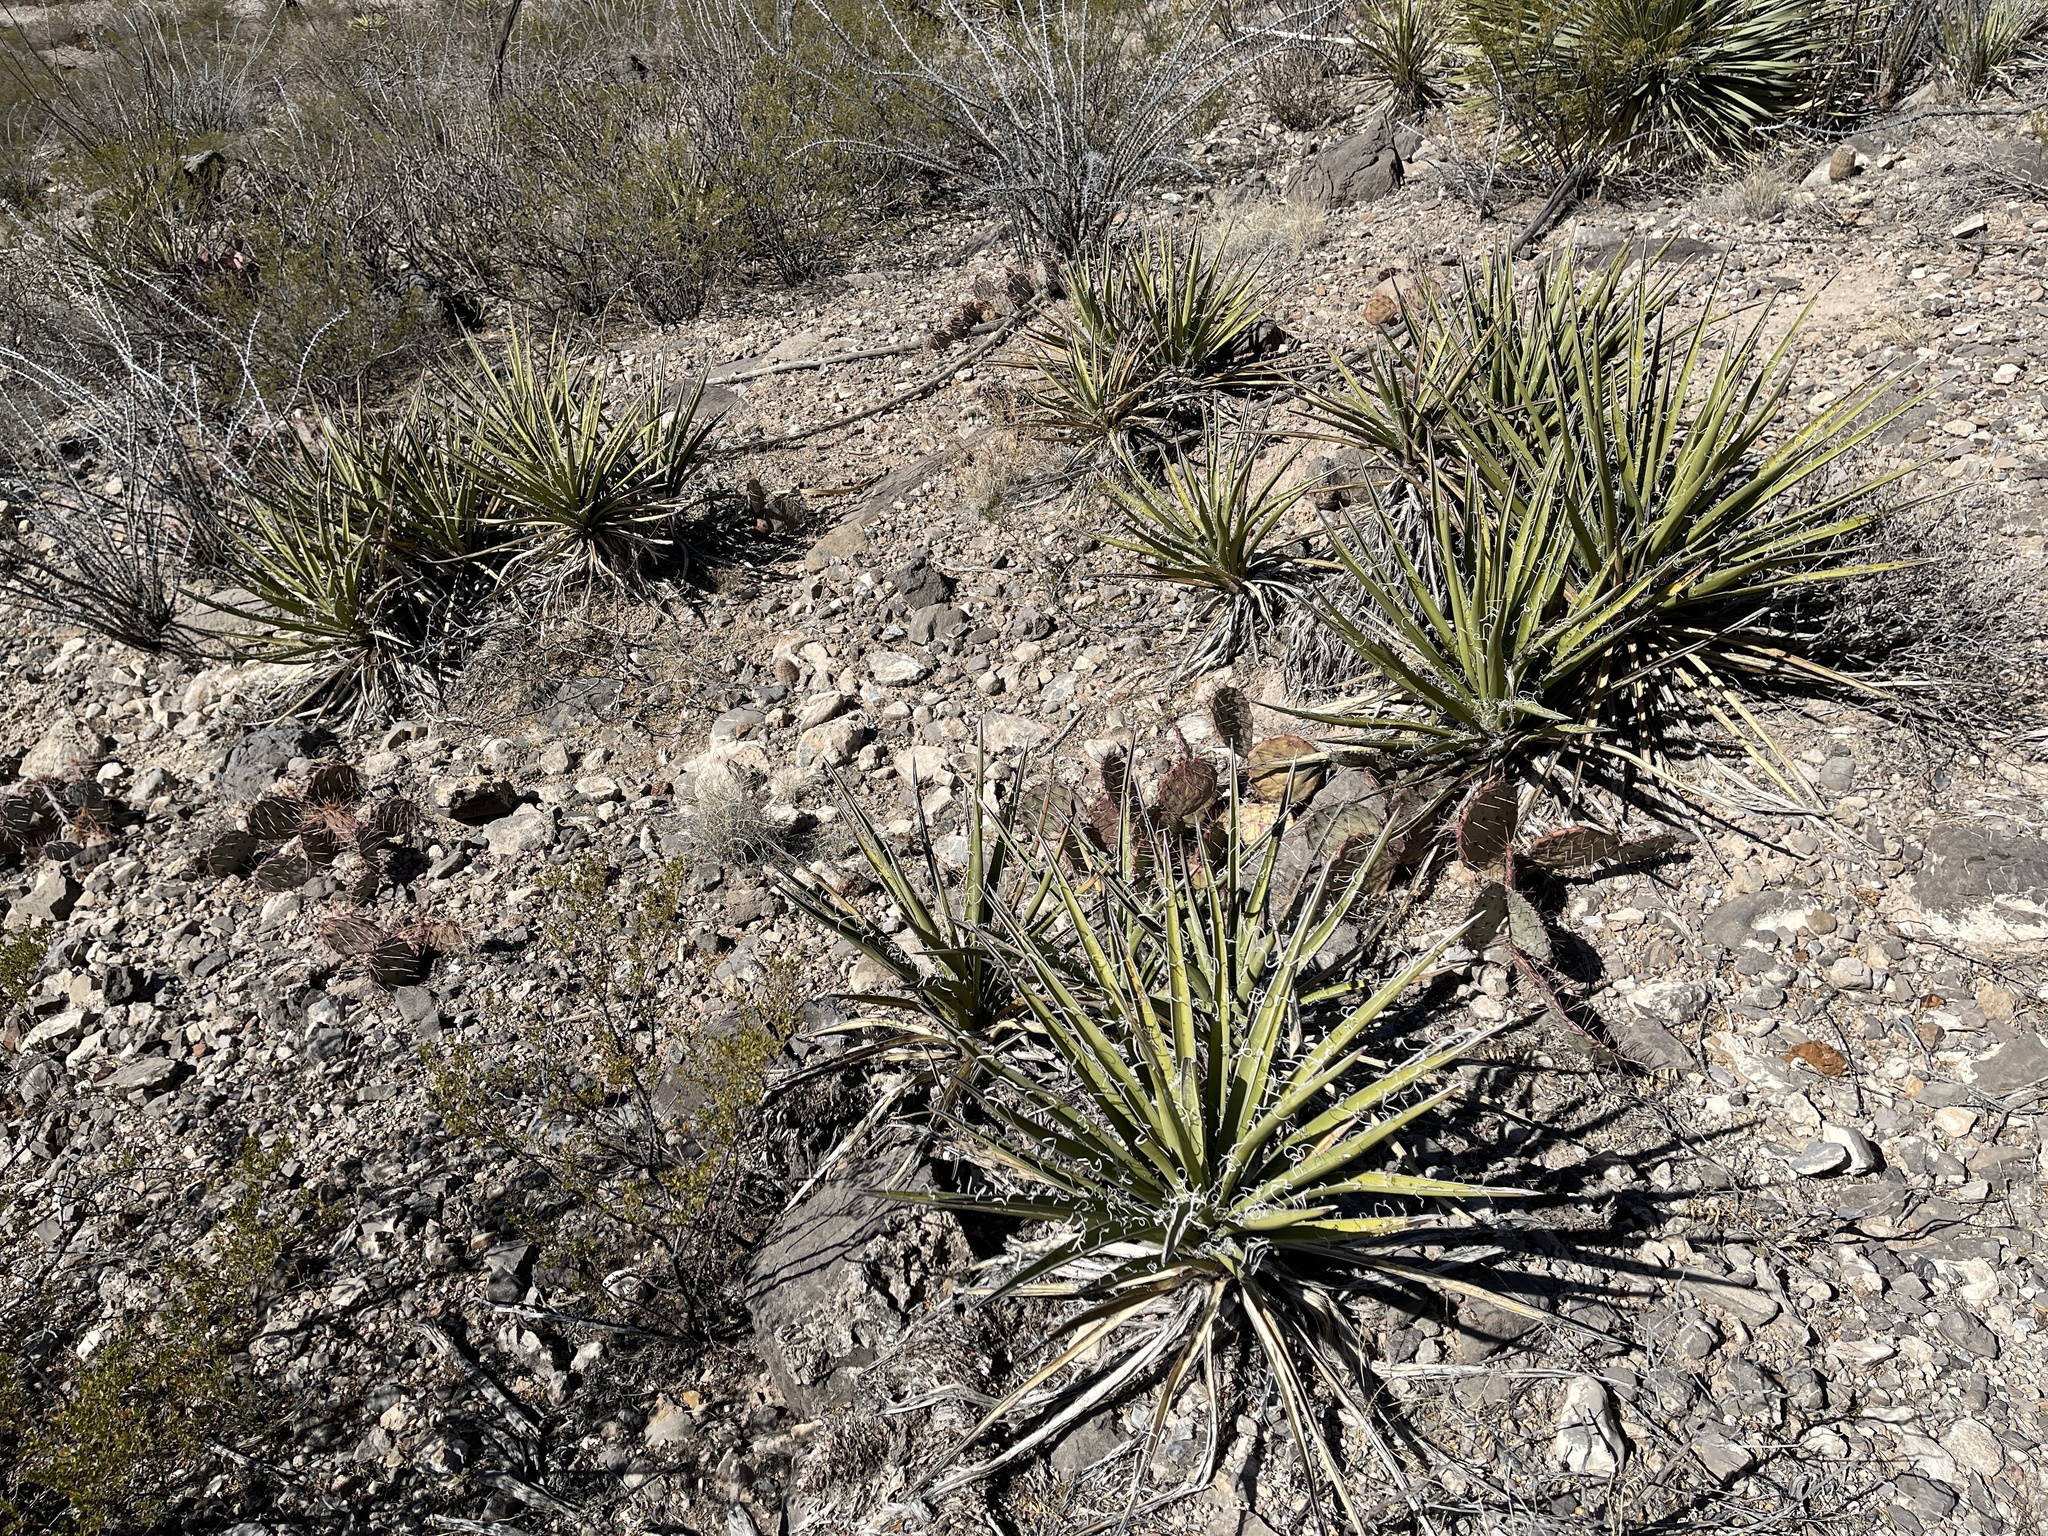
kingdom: Plantae
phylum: Tracheophyta
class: Liliopsida
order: Asparagales
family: Asparagaceae
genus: Yucca
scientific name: Yucca baccata
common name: Banana yucca
